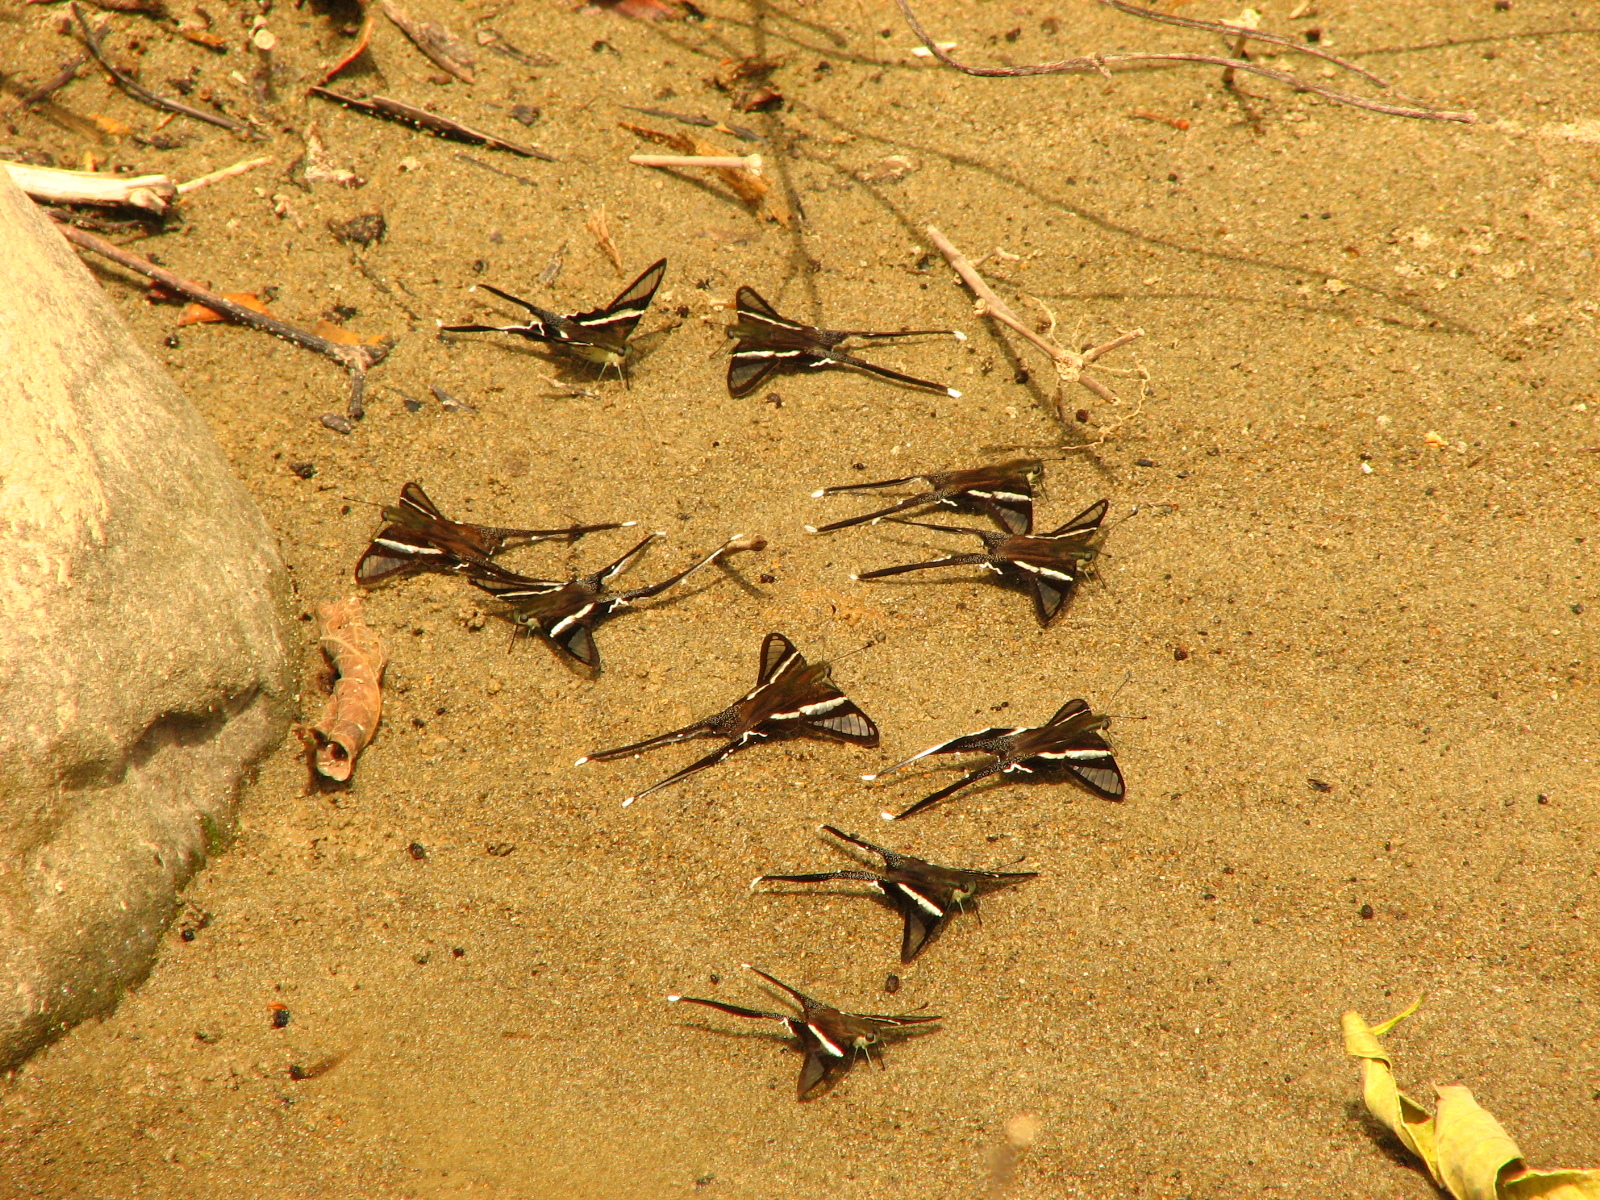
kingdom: Animalia
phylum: Arthropoda
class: Insecta
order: Lepidoptera
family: Papilionidae
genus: Lamproptera
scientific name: Lamproptera meges
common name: Green dragontail
